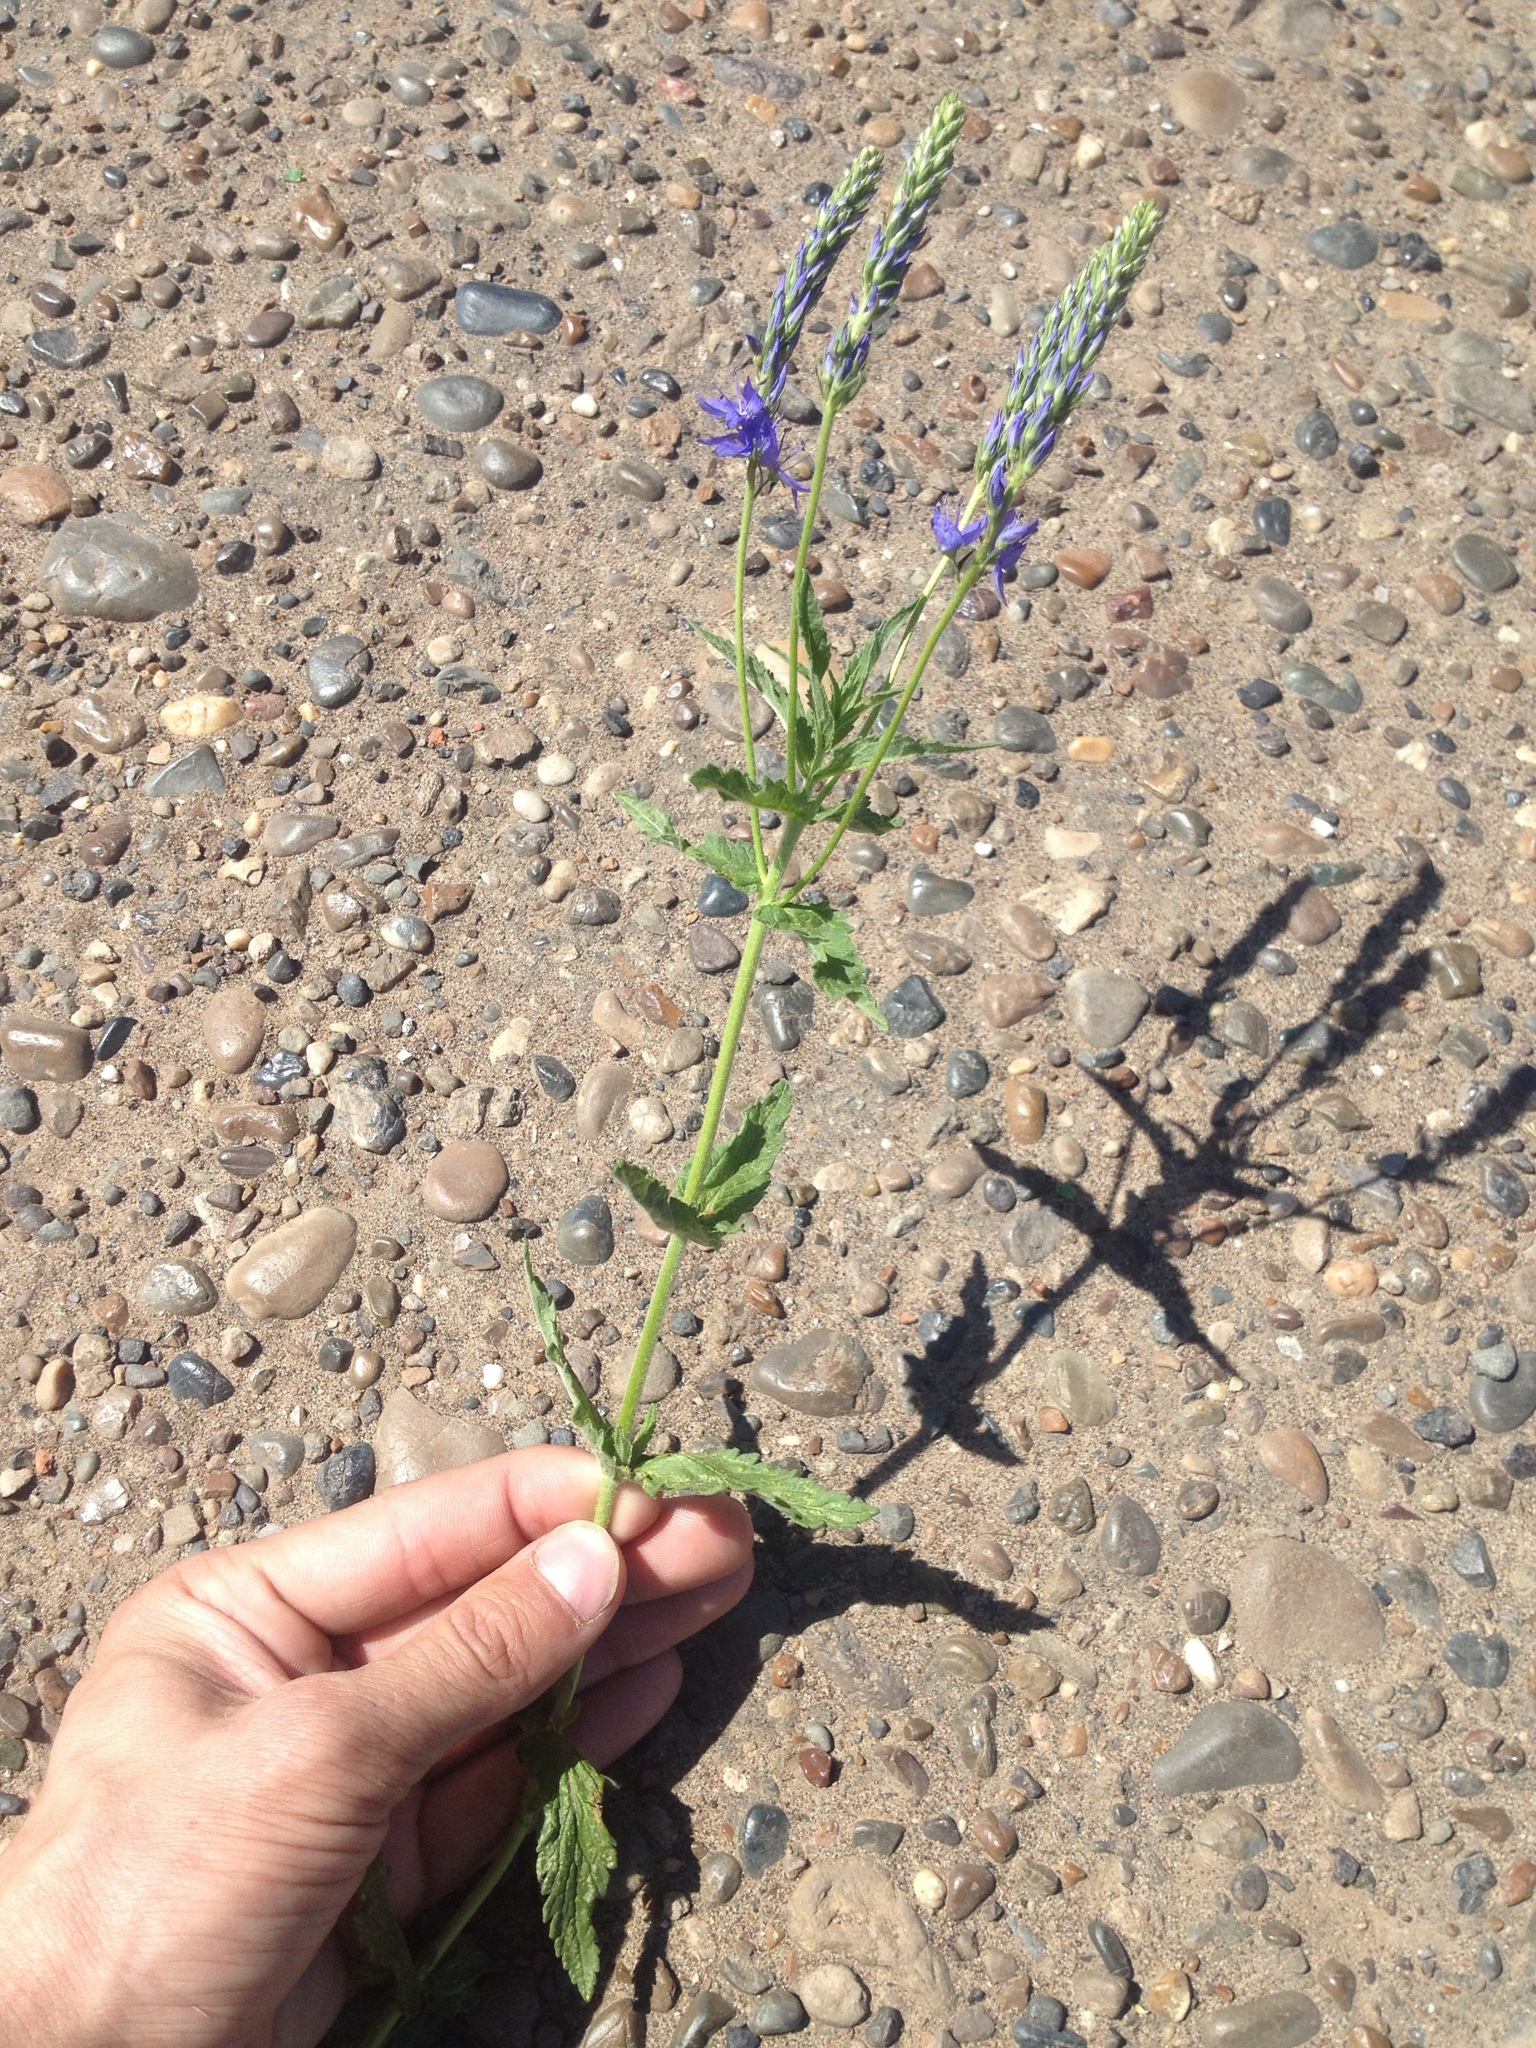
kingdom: Plantae
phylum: Tracheophyta
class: Magnoliopsida
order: Lamiales
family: Plantaginaceae
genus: Veronica
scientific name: Veronica teucrium
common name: Large speedwell
